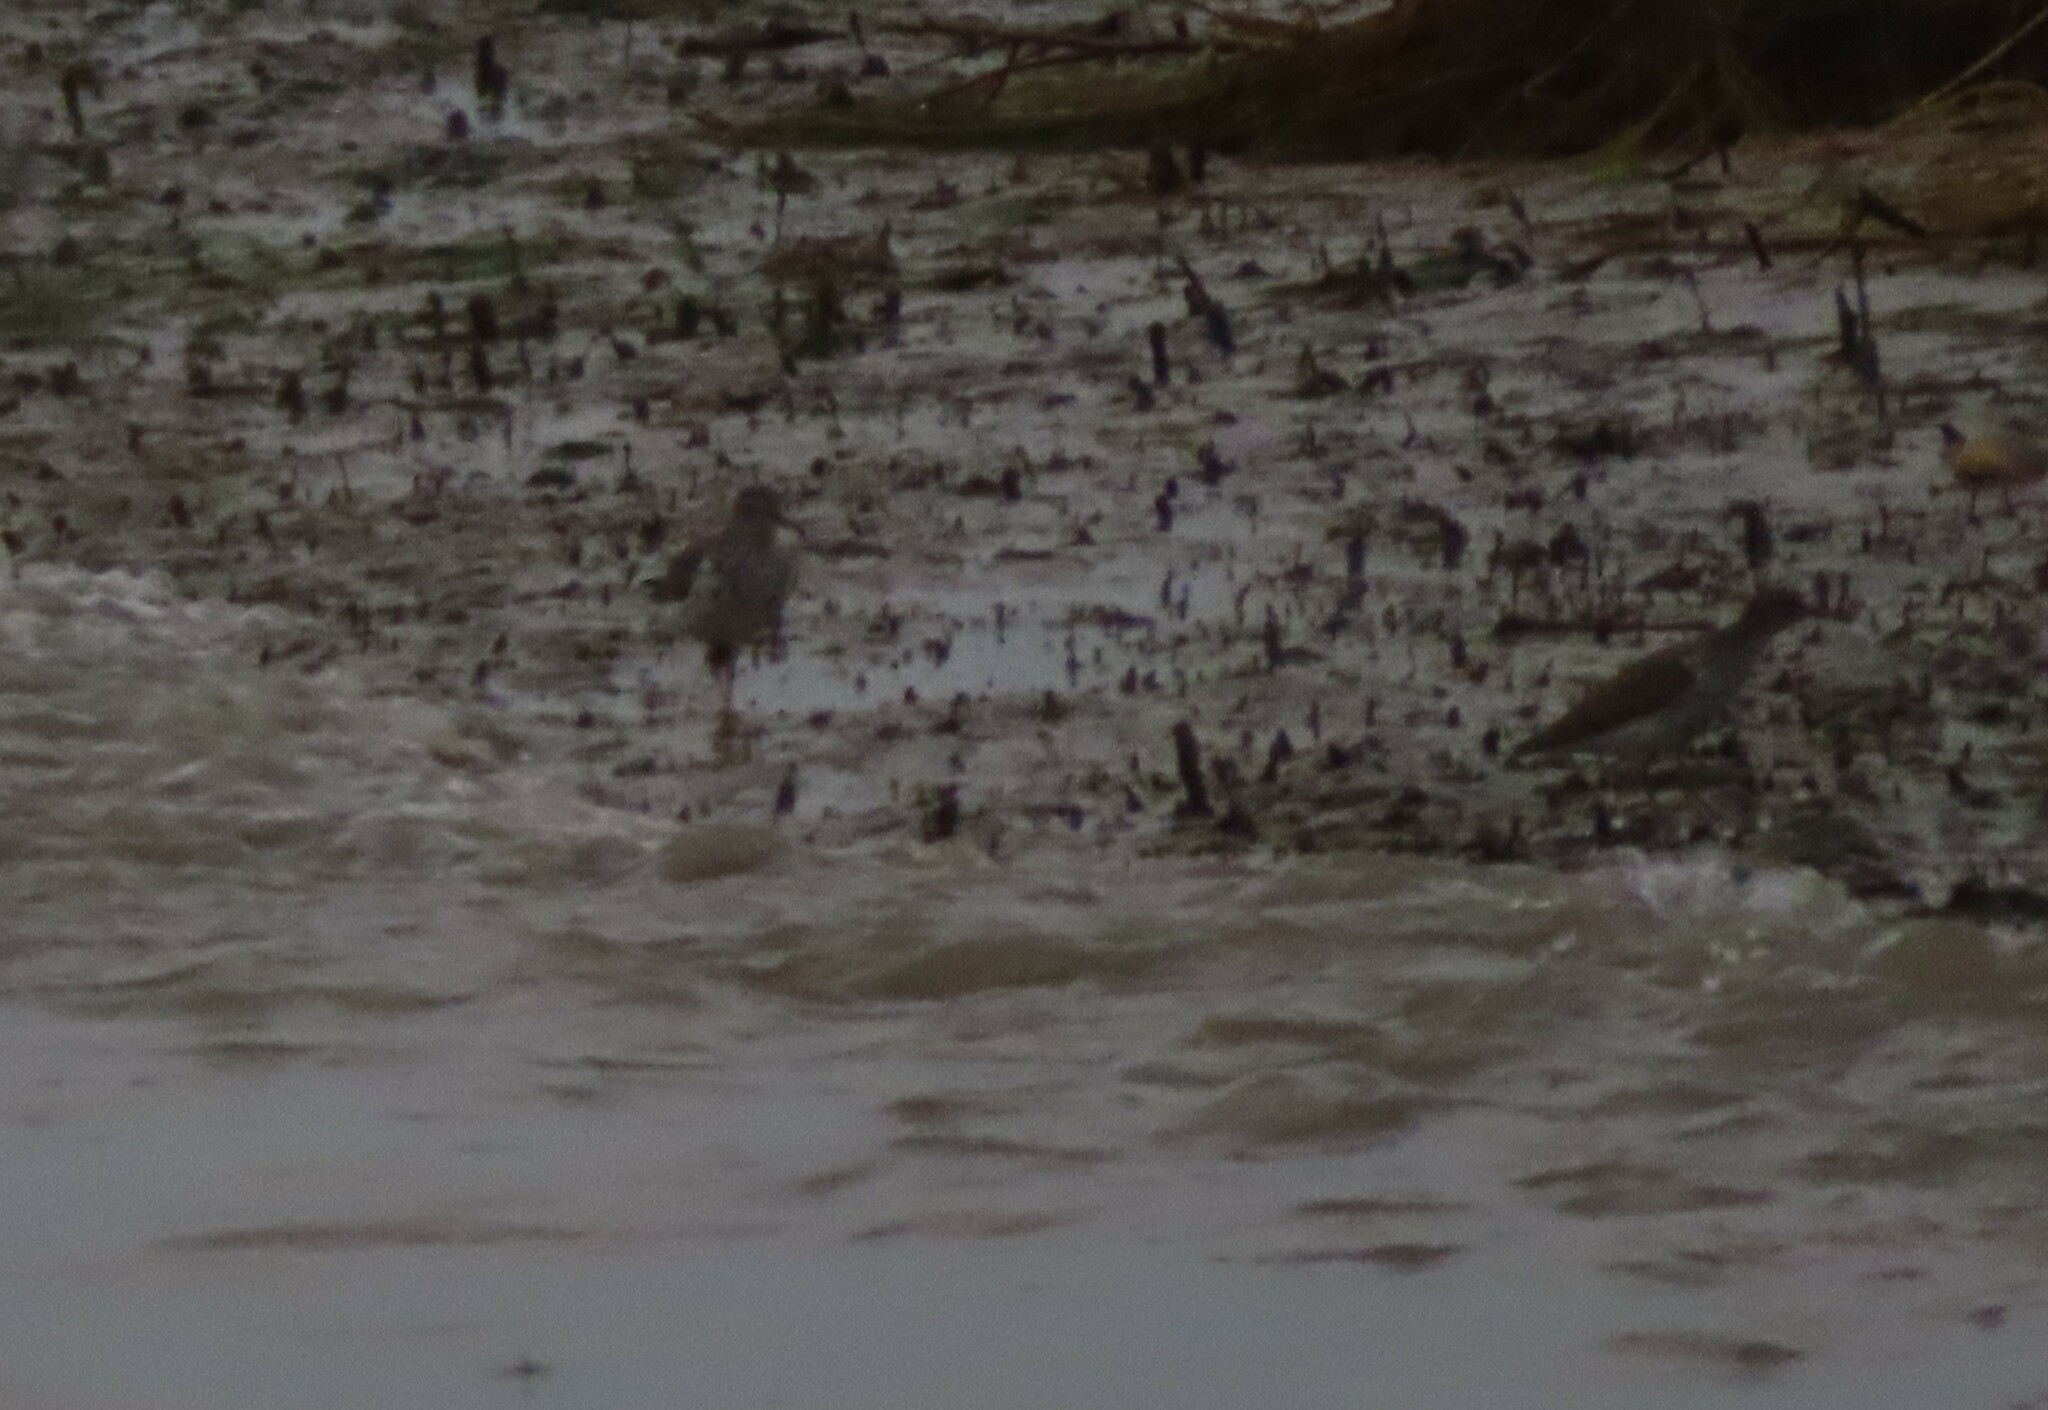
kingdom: Animalia
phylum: Chordata
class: Aves
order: Charadriiformes
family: Scolopacidae
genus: Actitis
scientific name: Actitis macularius
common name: Spotted sandpiper
